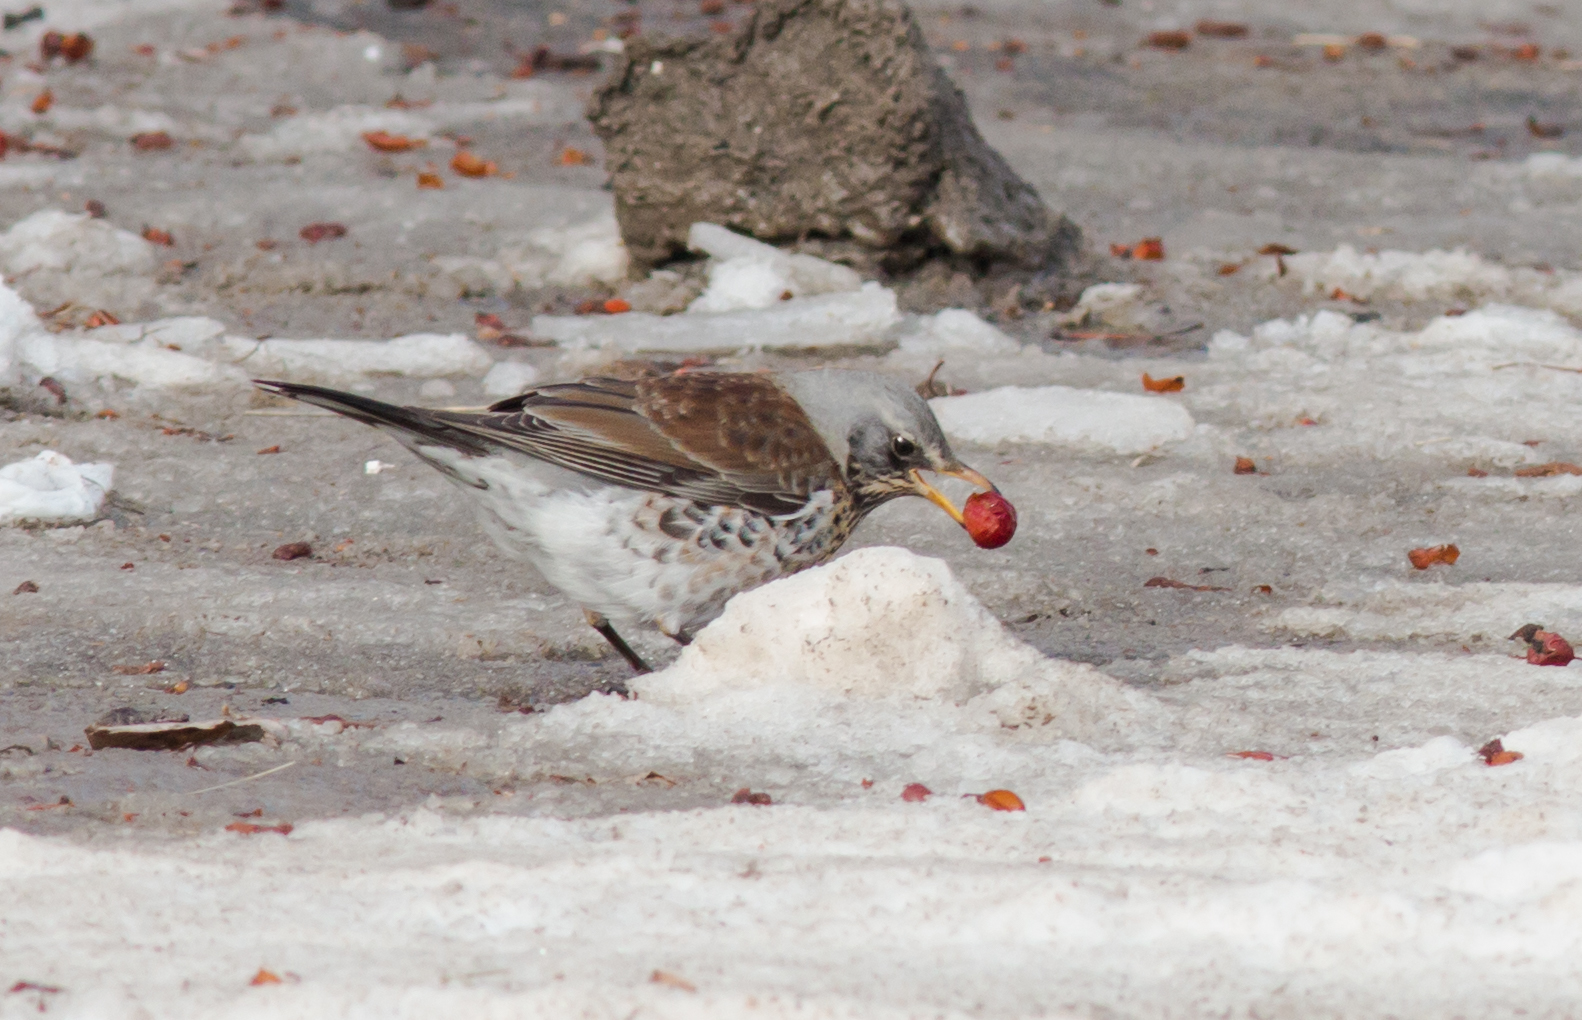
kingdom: Animalia
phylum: Chordata
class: Aves
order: Passeriformes
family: Turdidae
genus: Turdus
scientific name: Turdus pilaris
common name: Fieldfare
